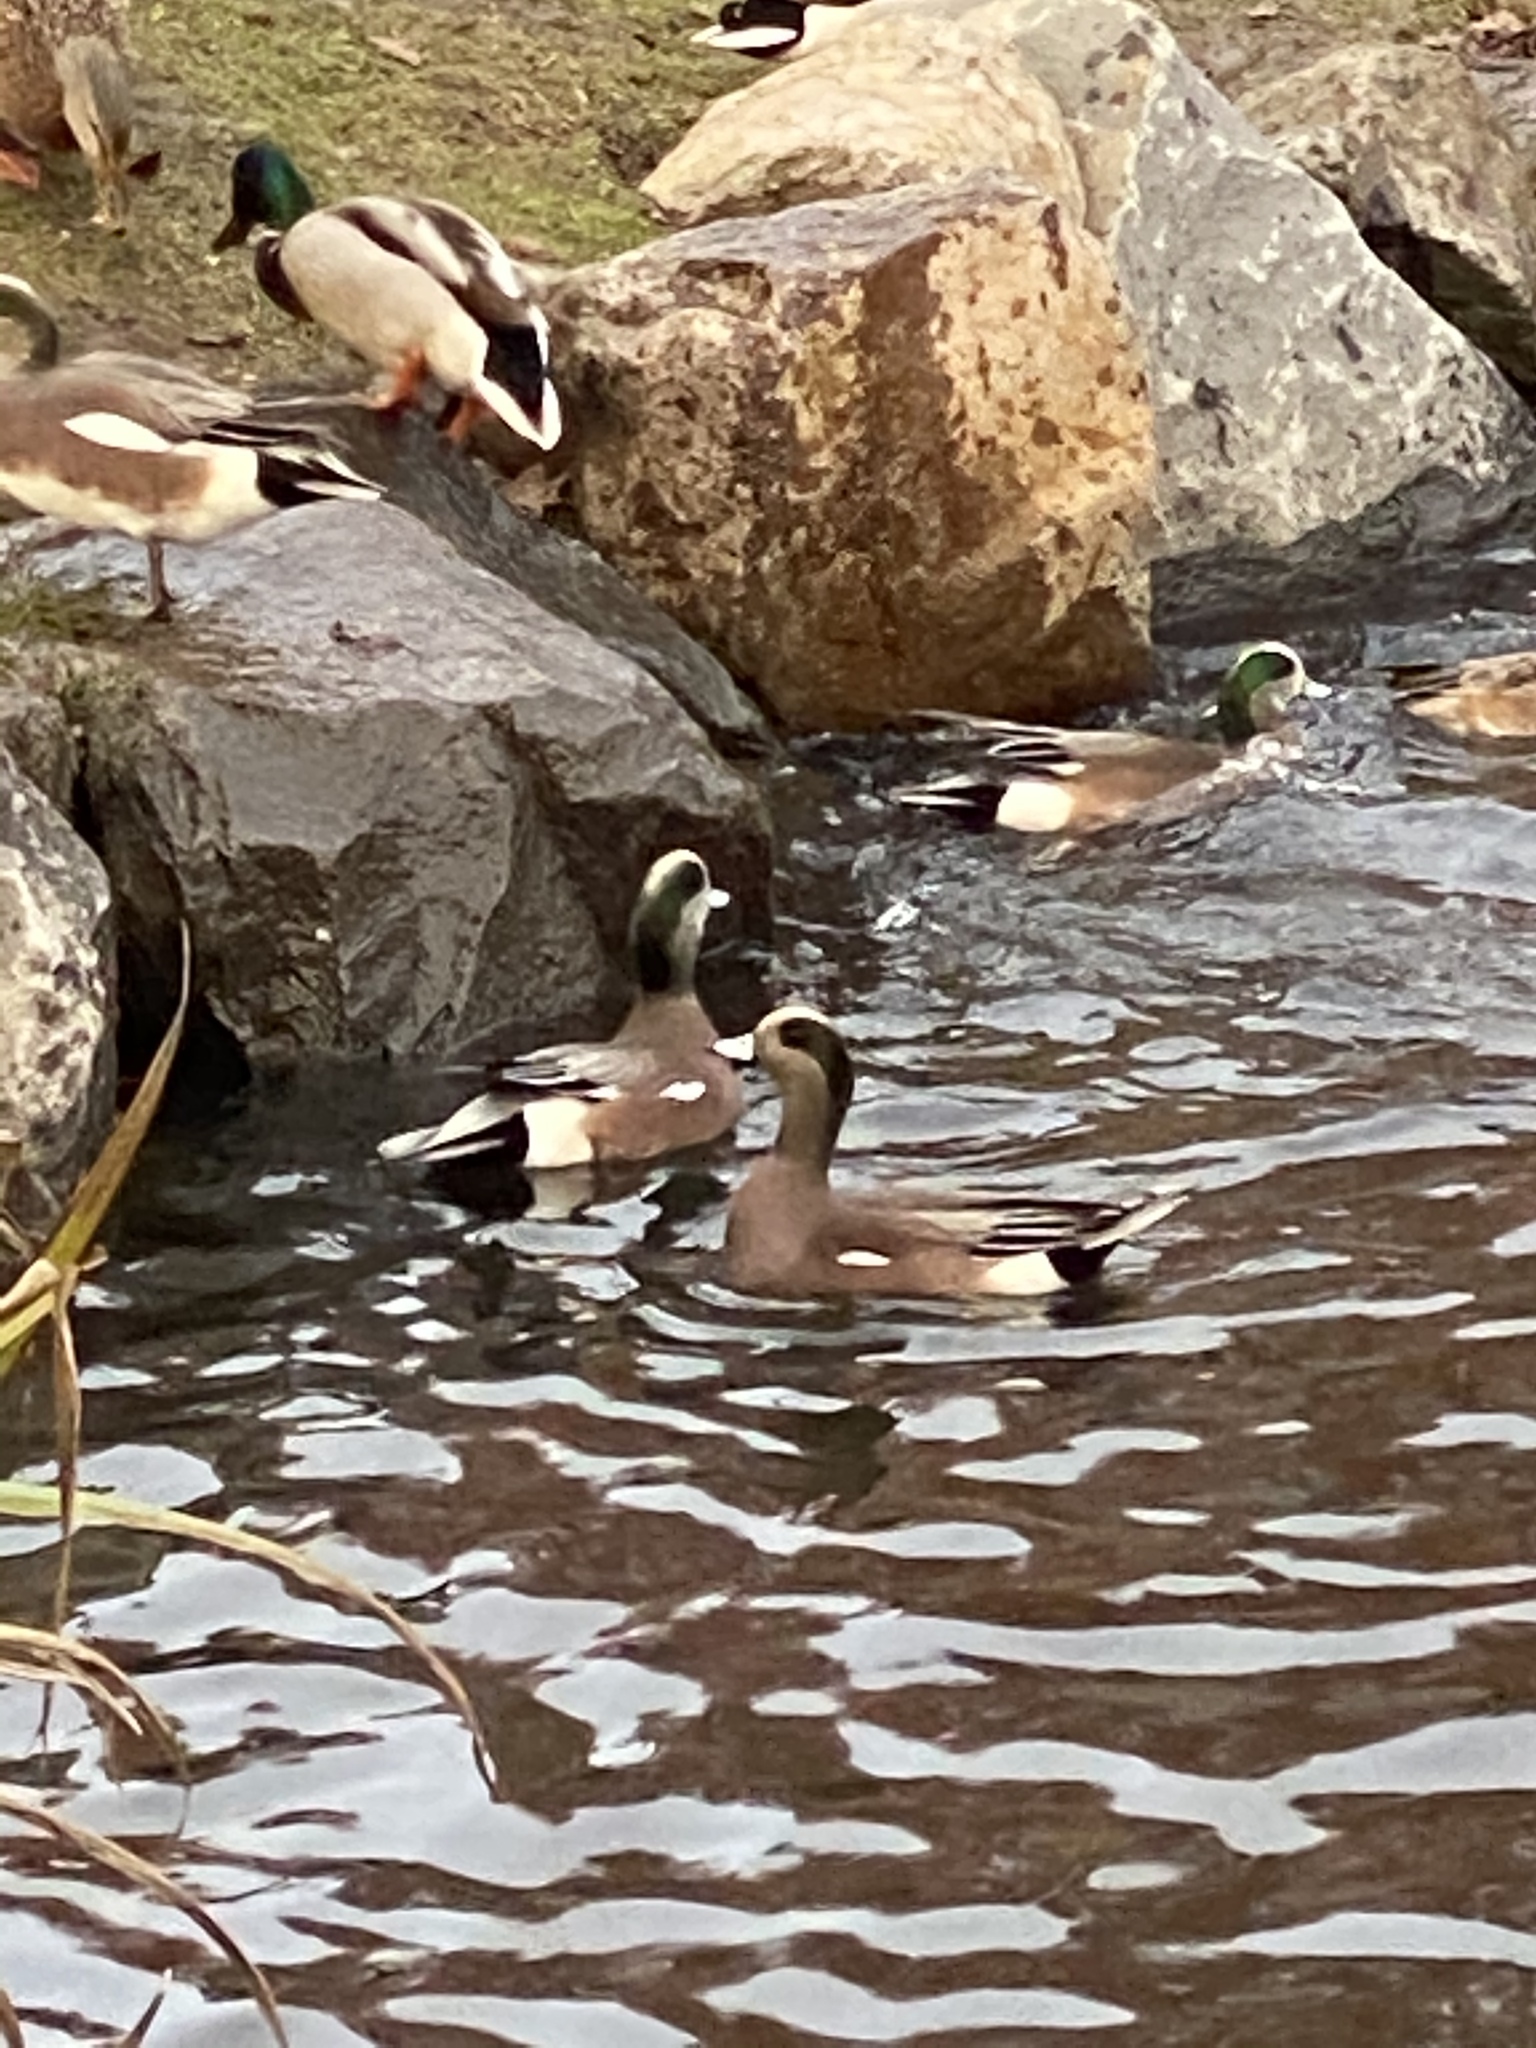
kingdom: Animalia
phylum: Chordata
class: Aves
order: Anseriformes
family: Anatidae
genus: Mareca
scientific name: Mareca americana
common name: American wigeon
